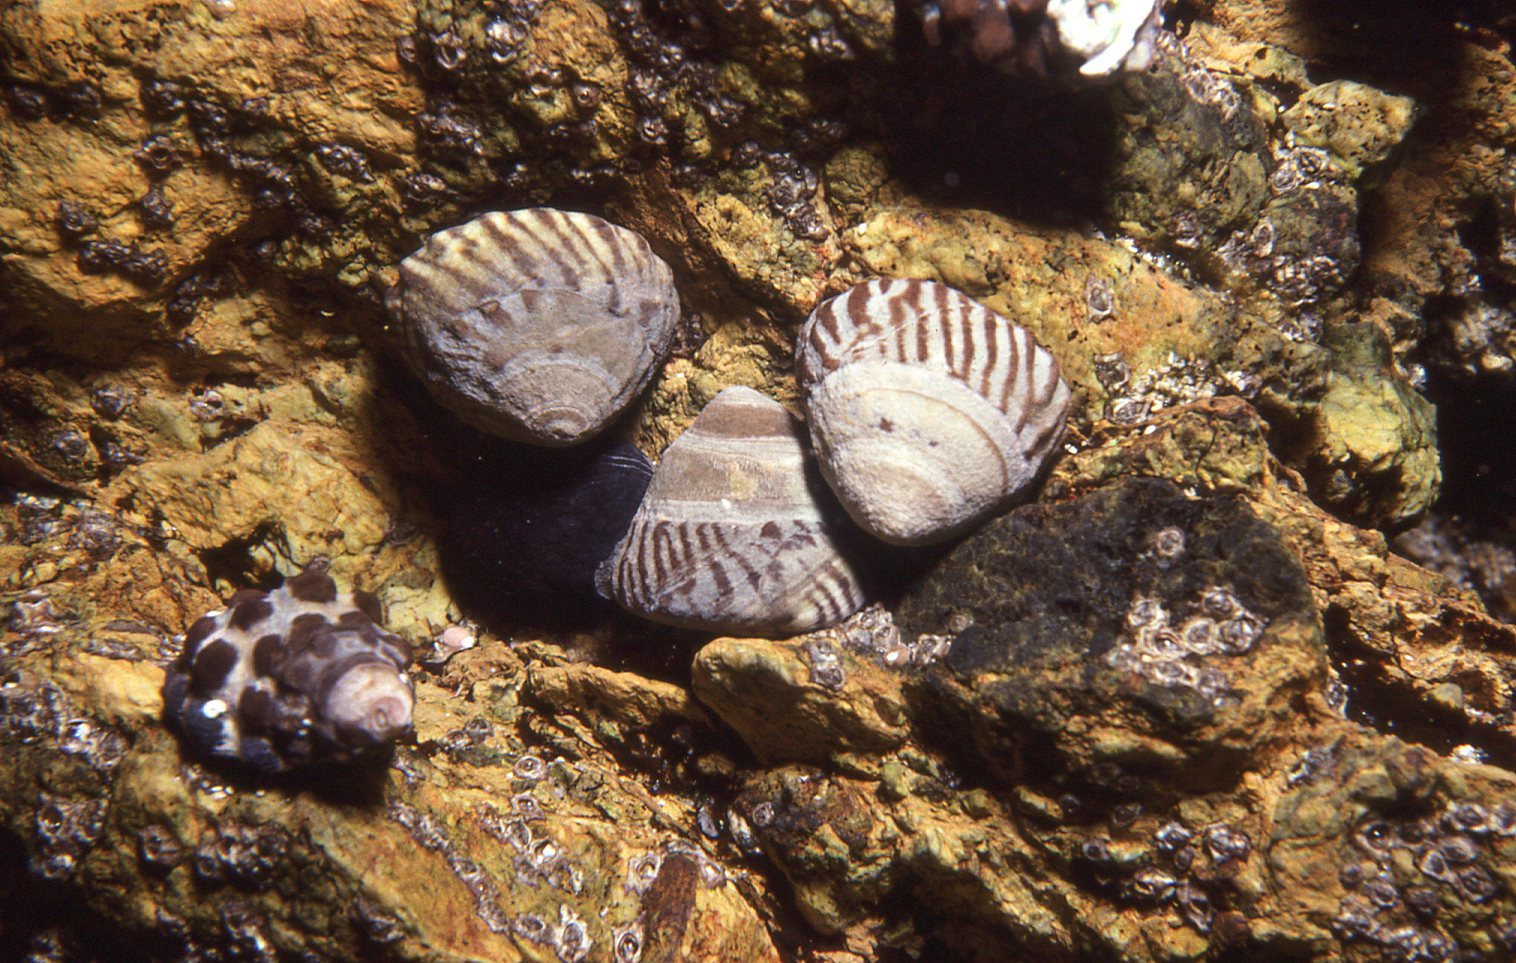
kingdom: Animalia
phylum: Mollusca
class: Gastropoda
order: Neogastropoda
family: Muricidae
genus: Tenguella
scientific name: Tenguella marginalba
